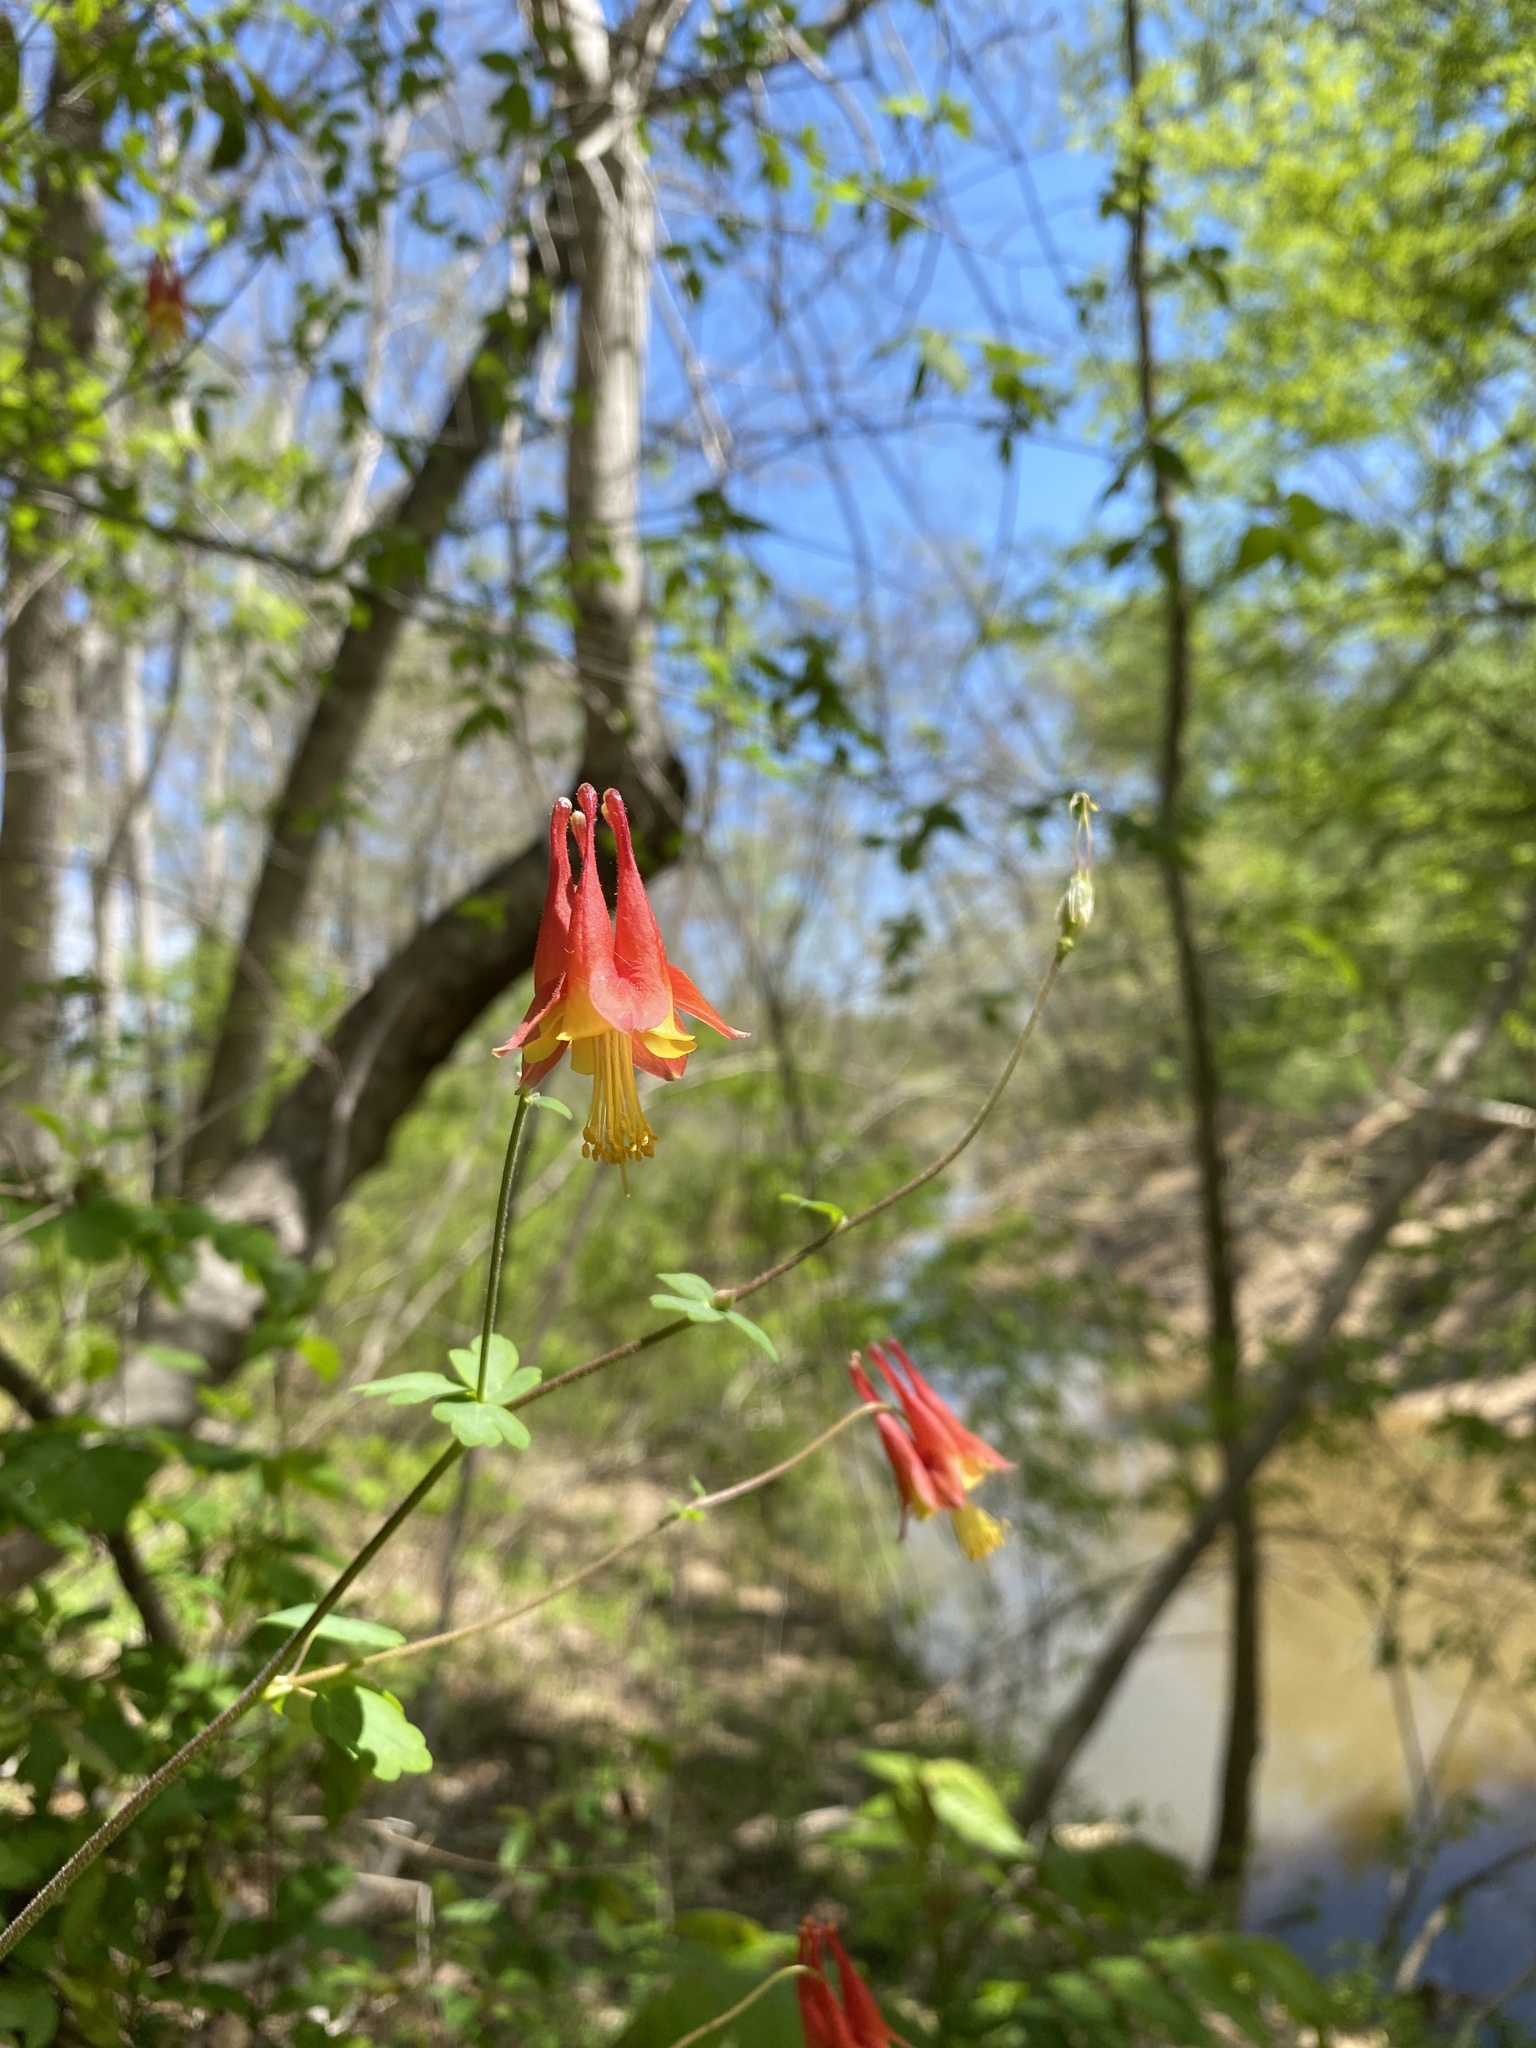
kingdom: Plantae
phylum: Tracheophyta
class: Magnoliopsida
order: Ranunculales
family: Ranunculaceae
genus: Aquilegia
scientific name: Aquilegia canadensis
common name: American columbine
